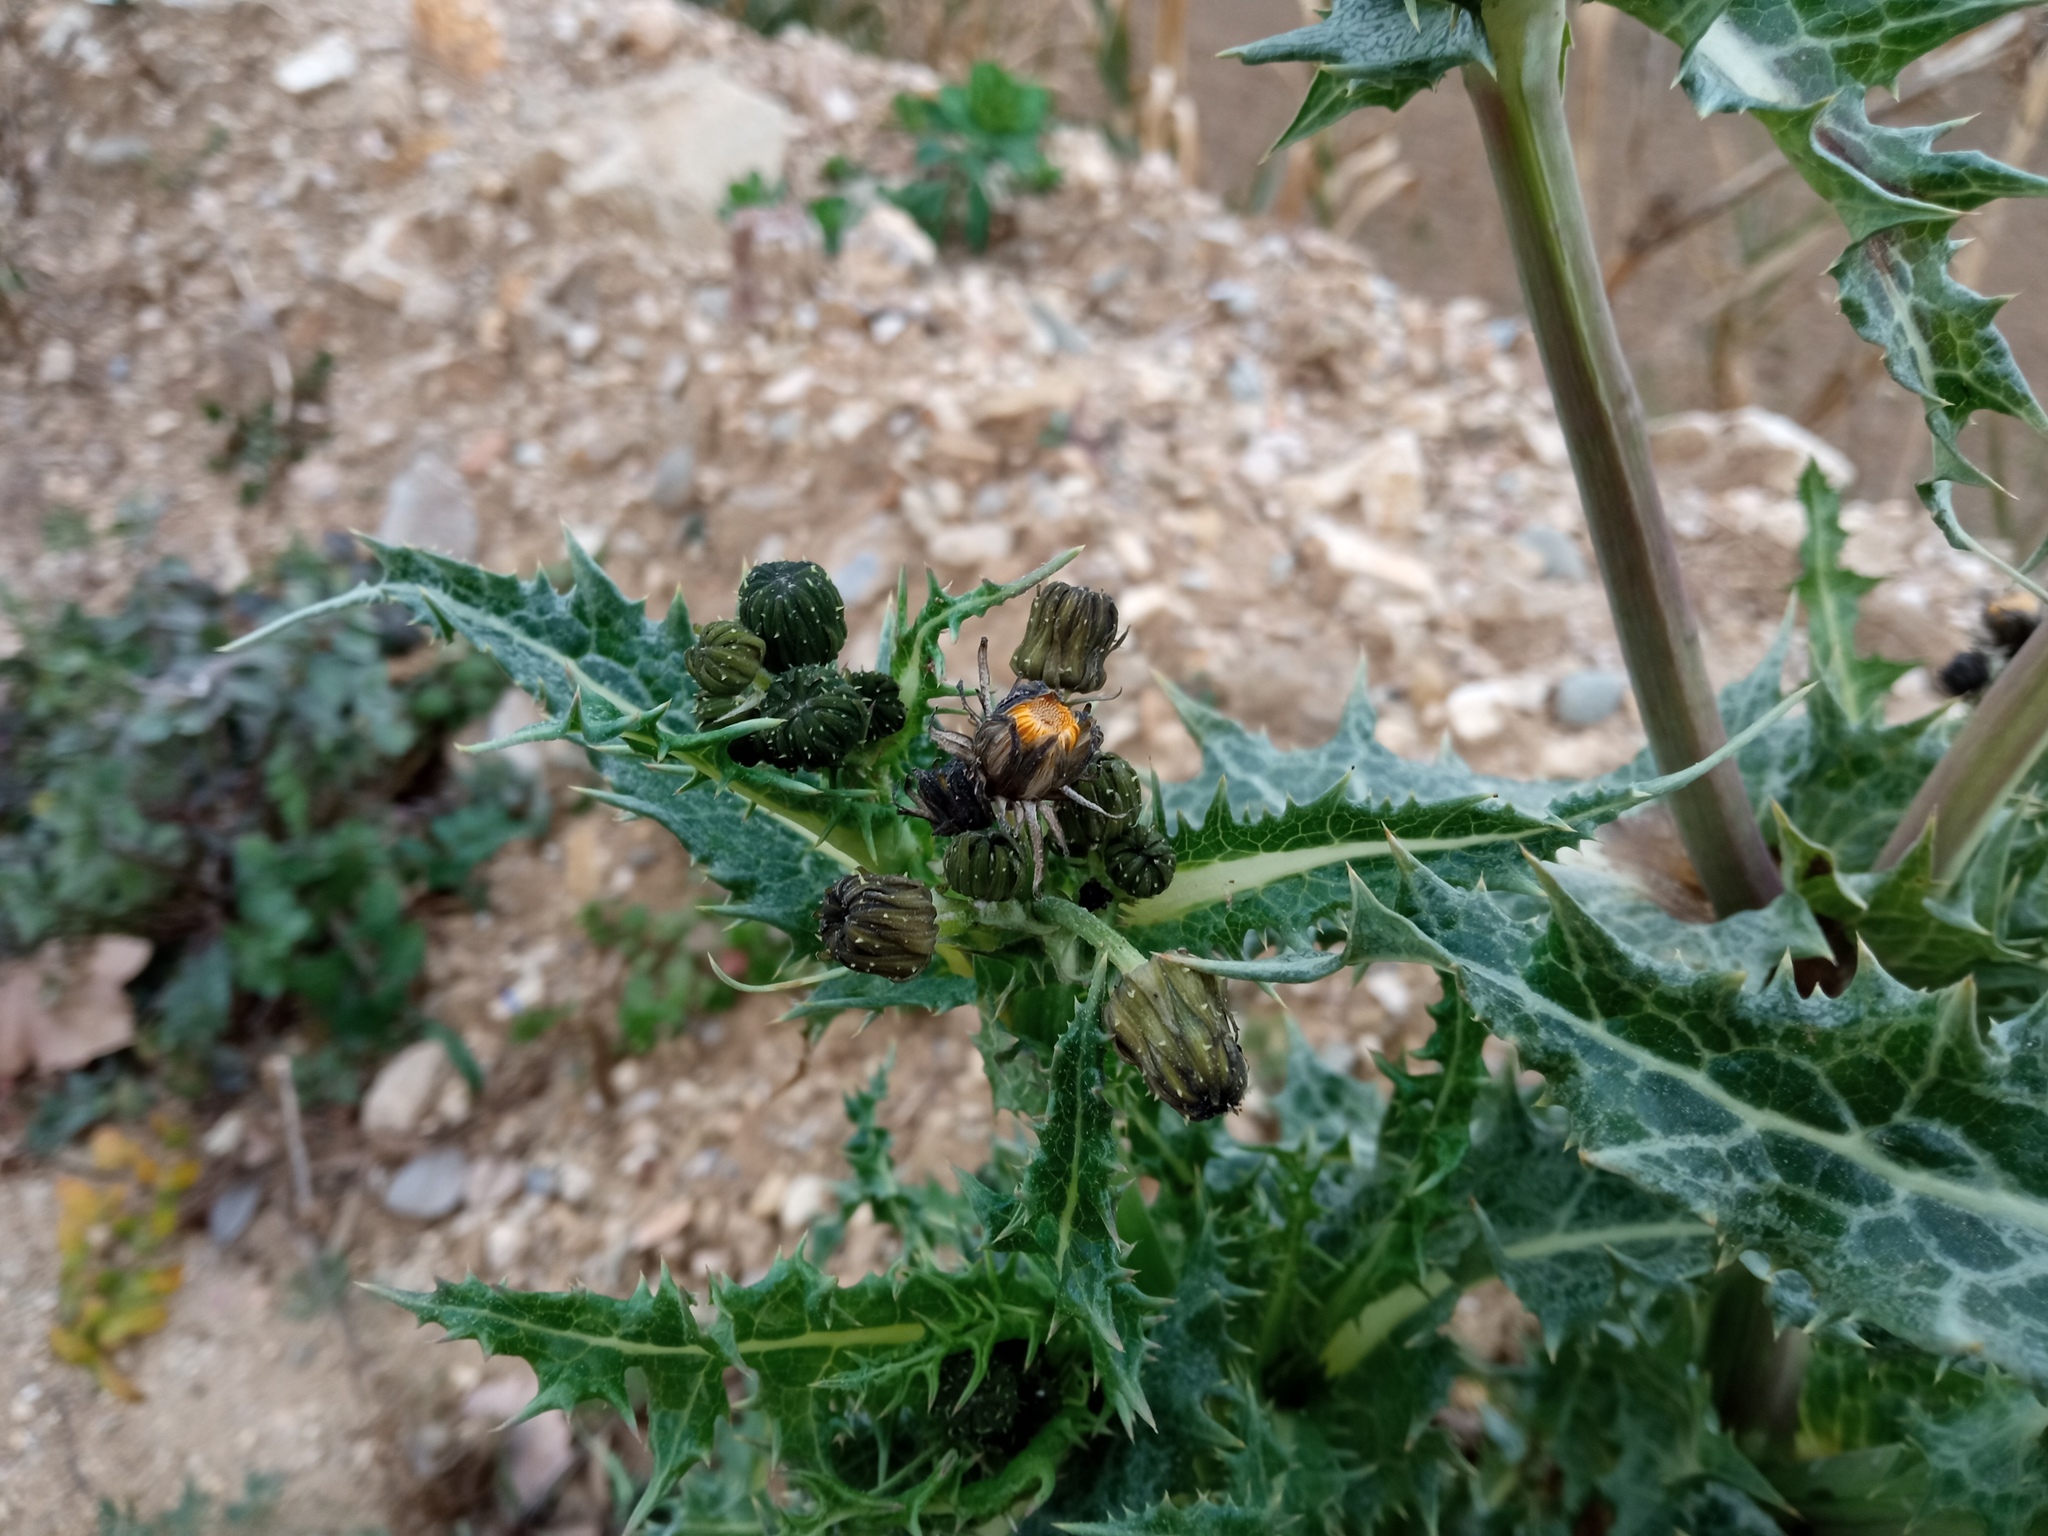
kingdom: Plantae
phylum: Tracheophyta
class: Magnoliopsida
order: Asterales
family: Asteraceae
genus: Sonchus
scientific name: Sonchus asper
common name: Prickly sow-thistle
